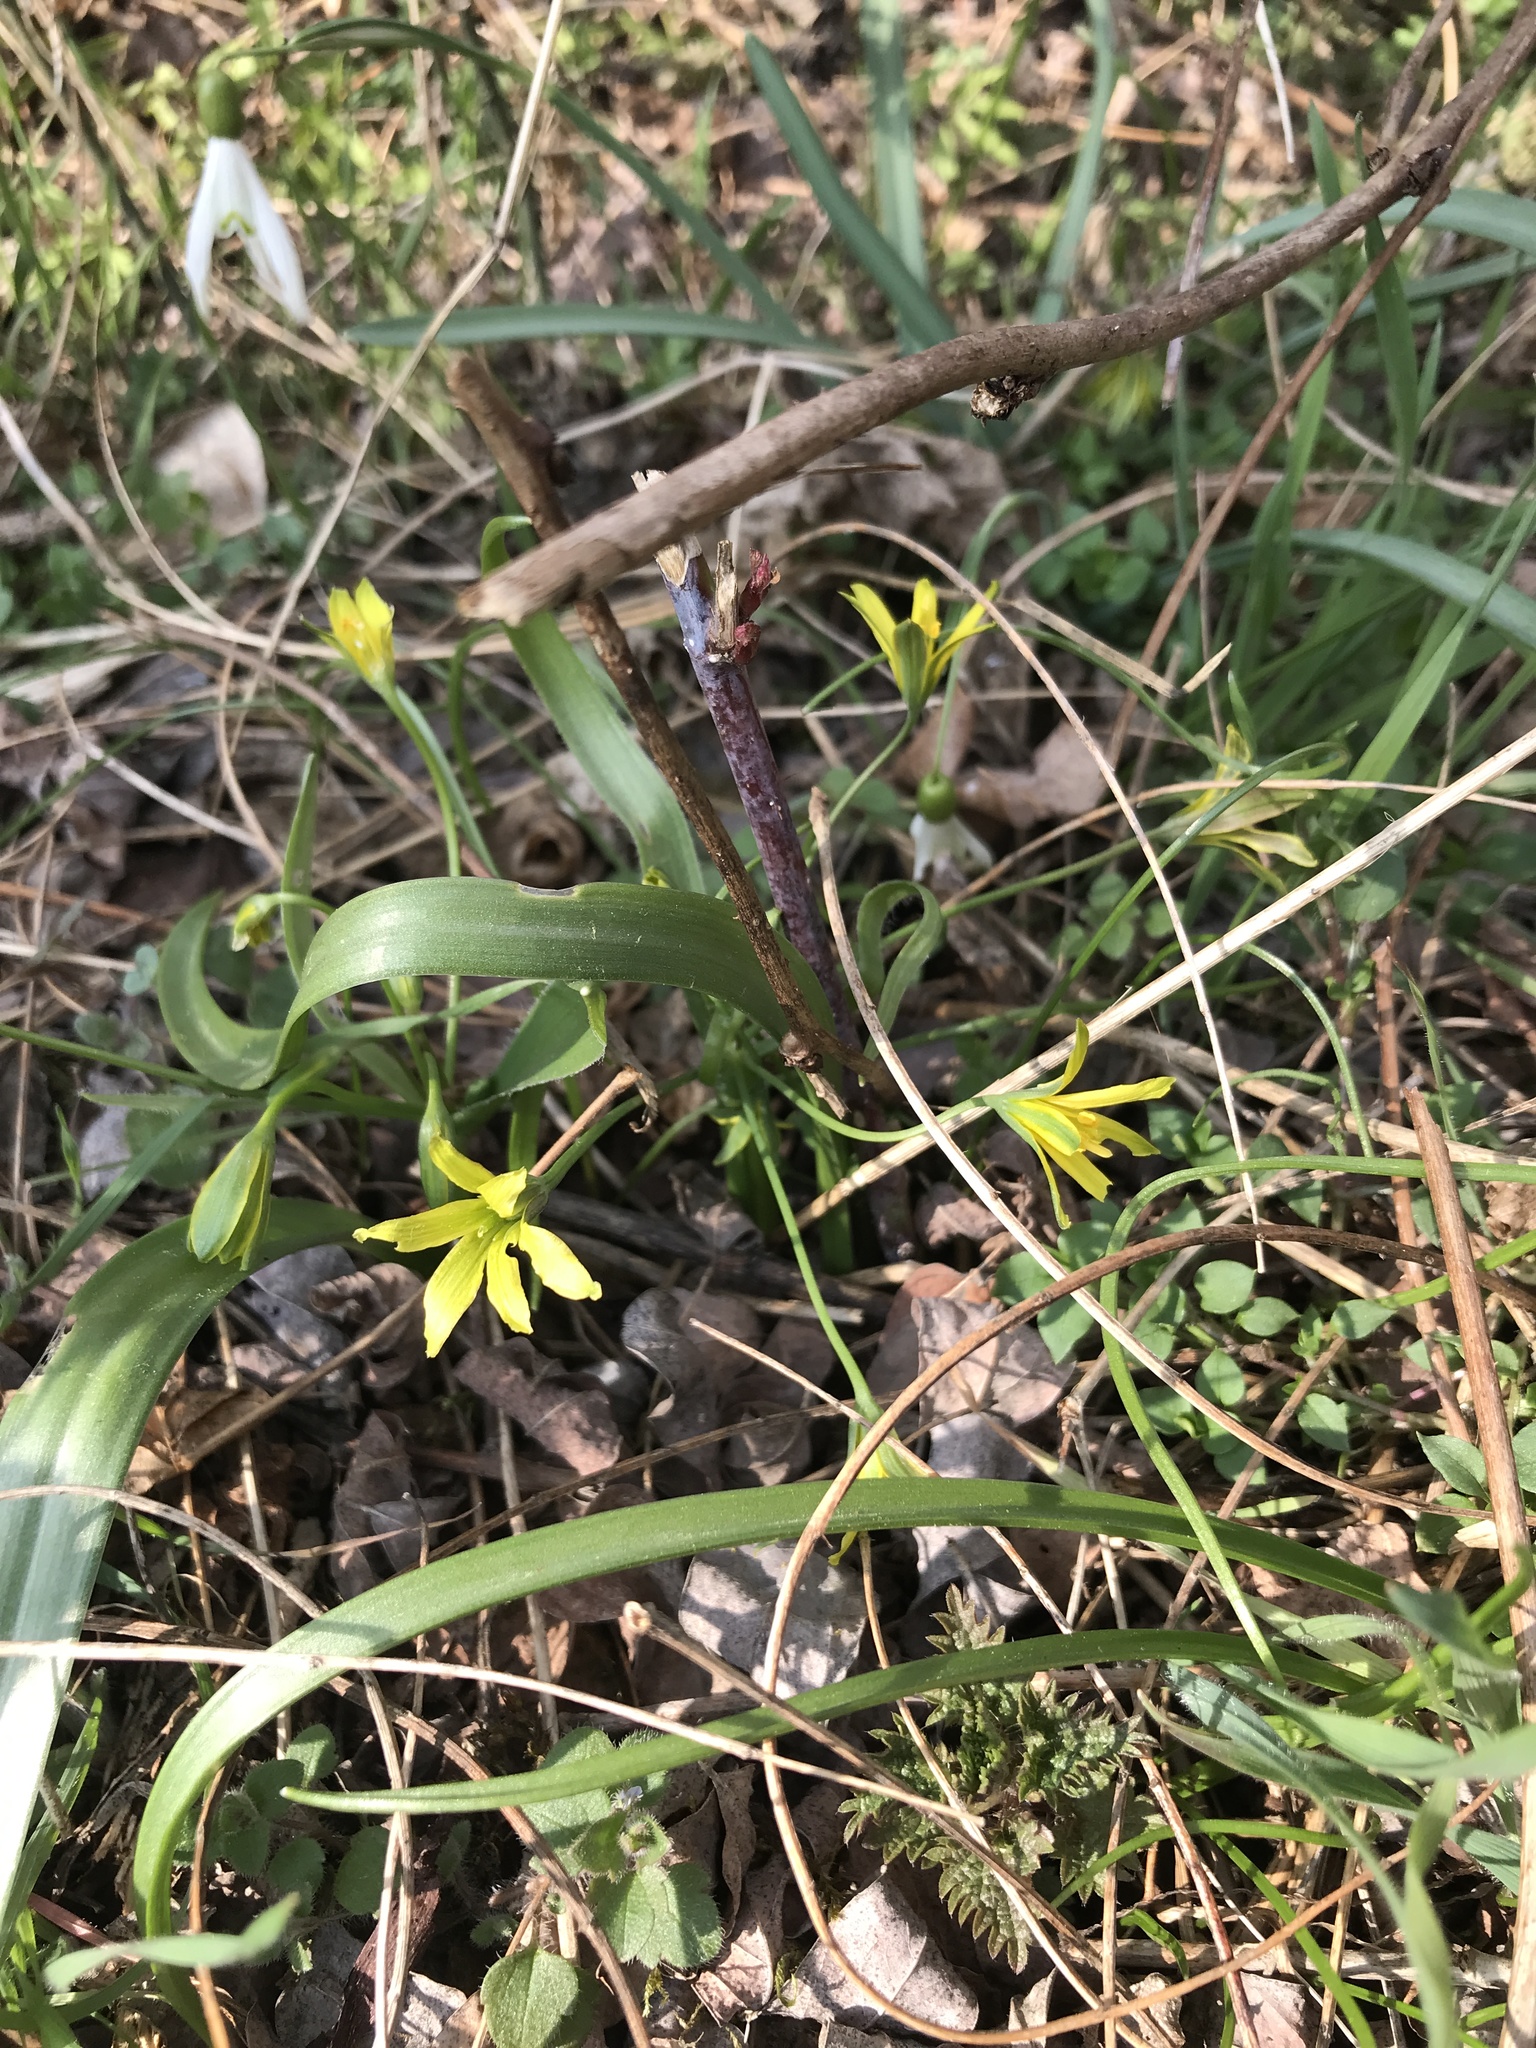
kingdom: Plantae
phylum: Tracheophyta
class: Liliopsida
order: Liliales
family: Liliaceae
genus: Gagea
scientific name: Gagea lutea
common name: Yellow star-of-bethlehem
